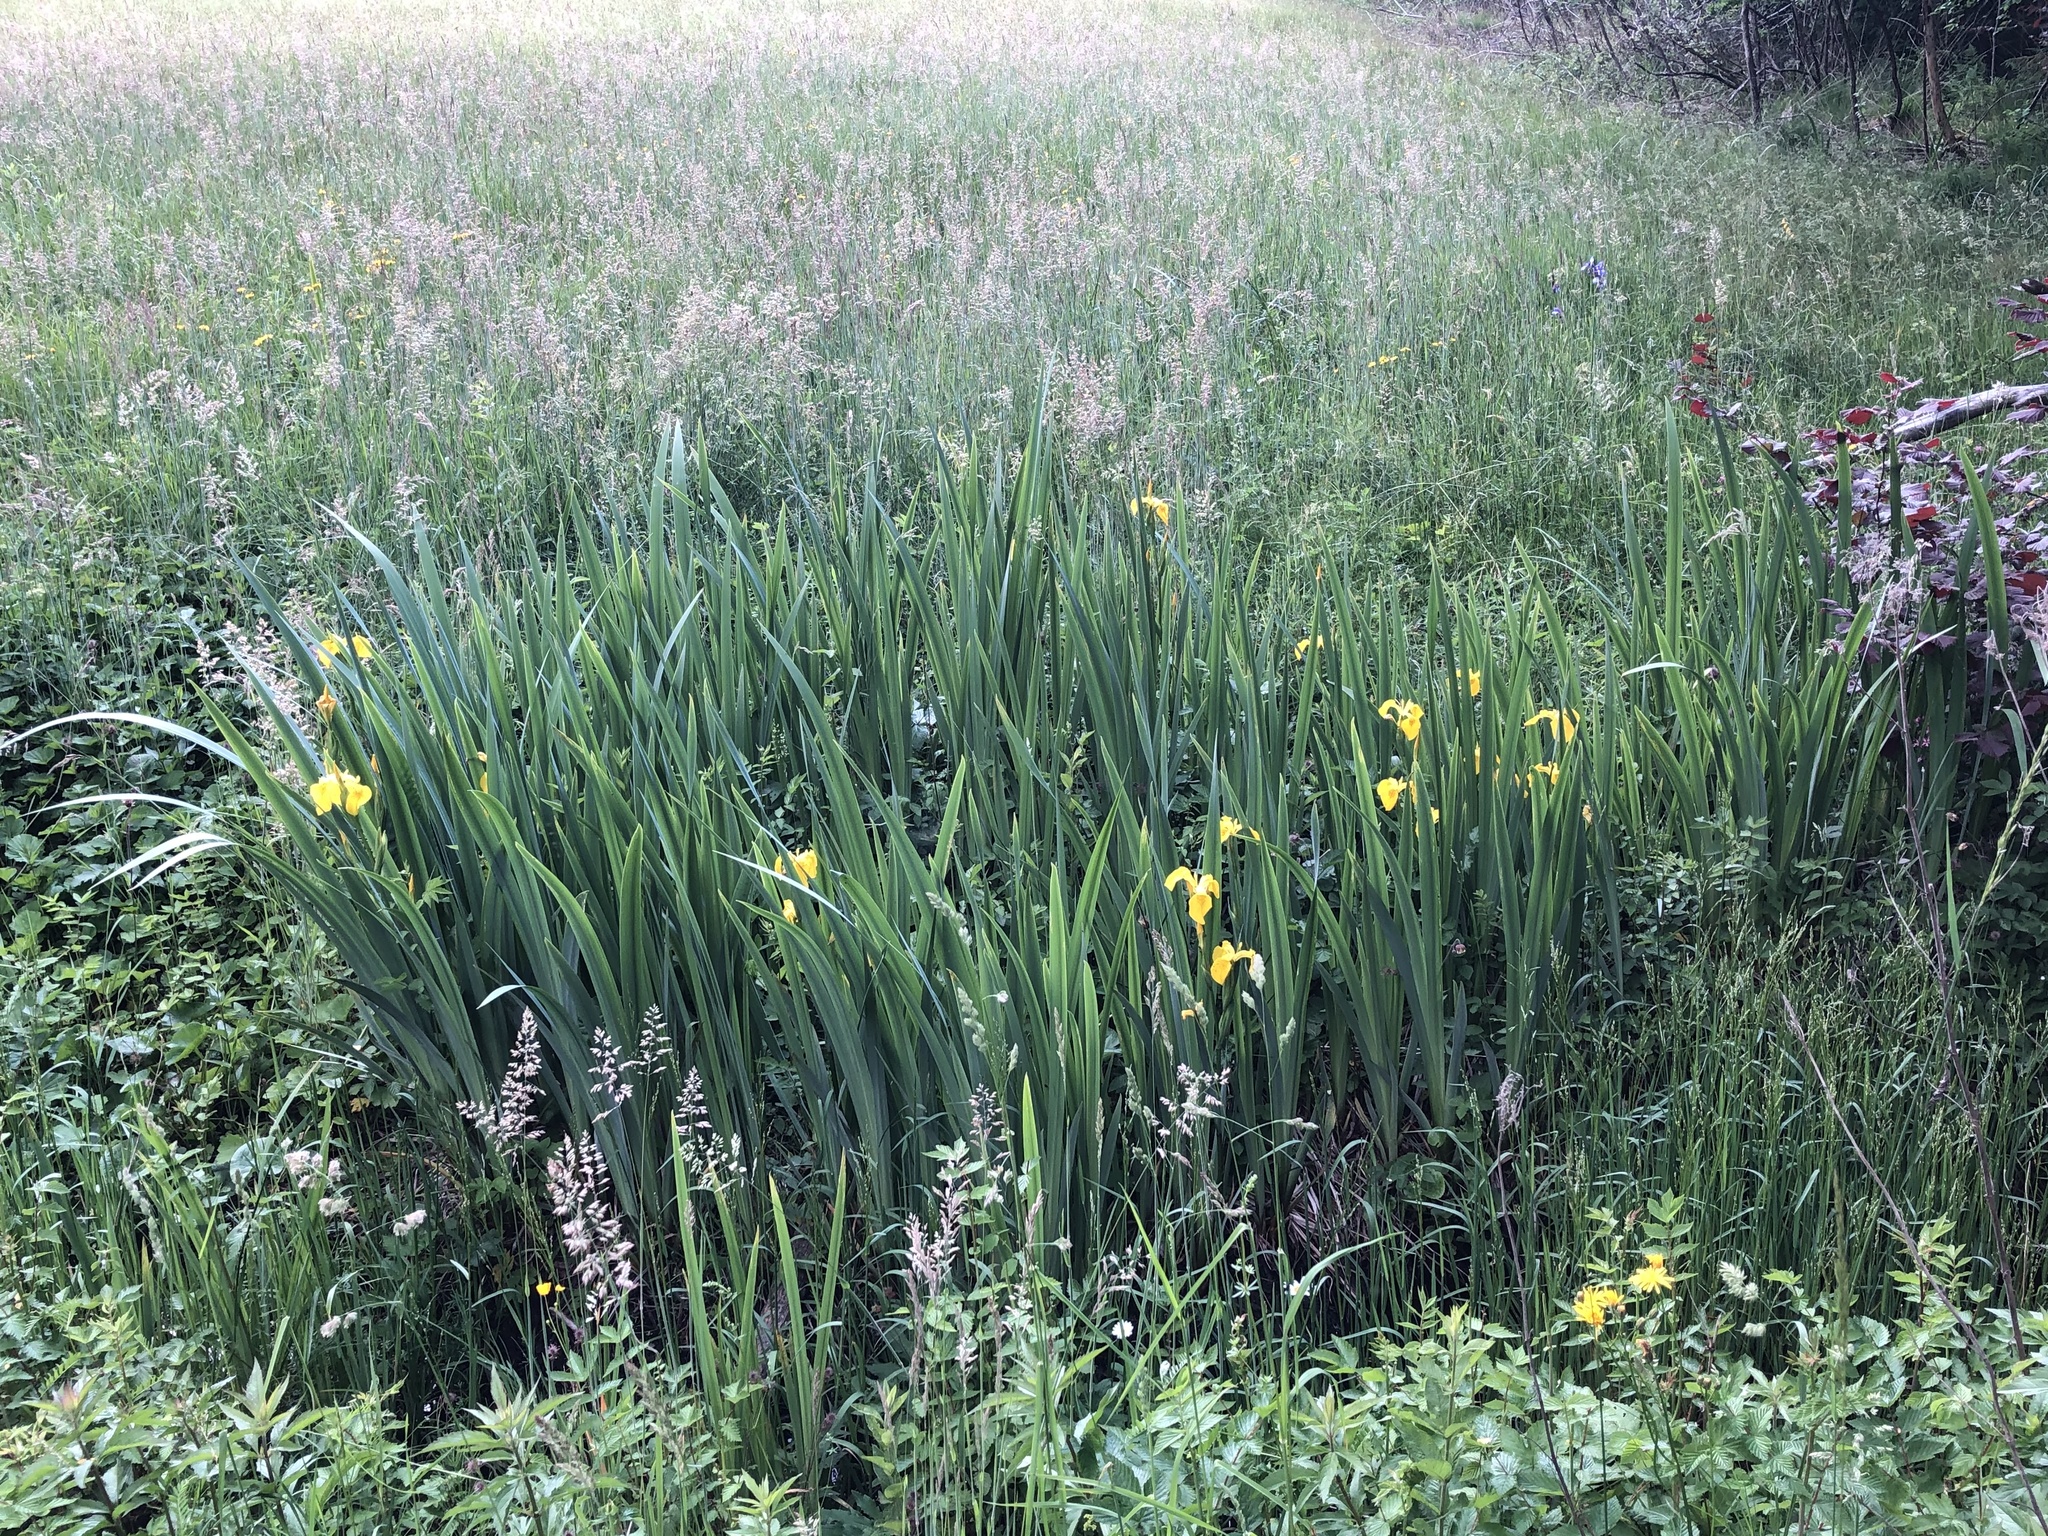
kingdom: Plantae
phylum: Tracheophyta
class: Liliopsida
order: Asparagales
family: Iridaceae
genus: Iris
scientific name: Iris pseudacorus
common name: Yellow flag
